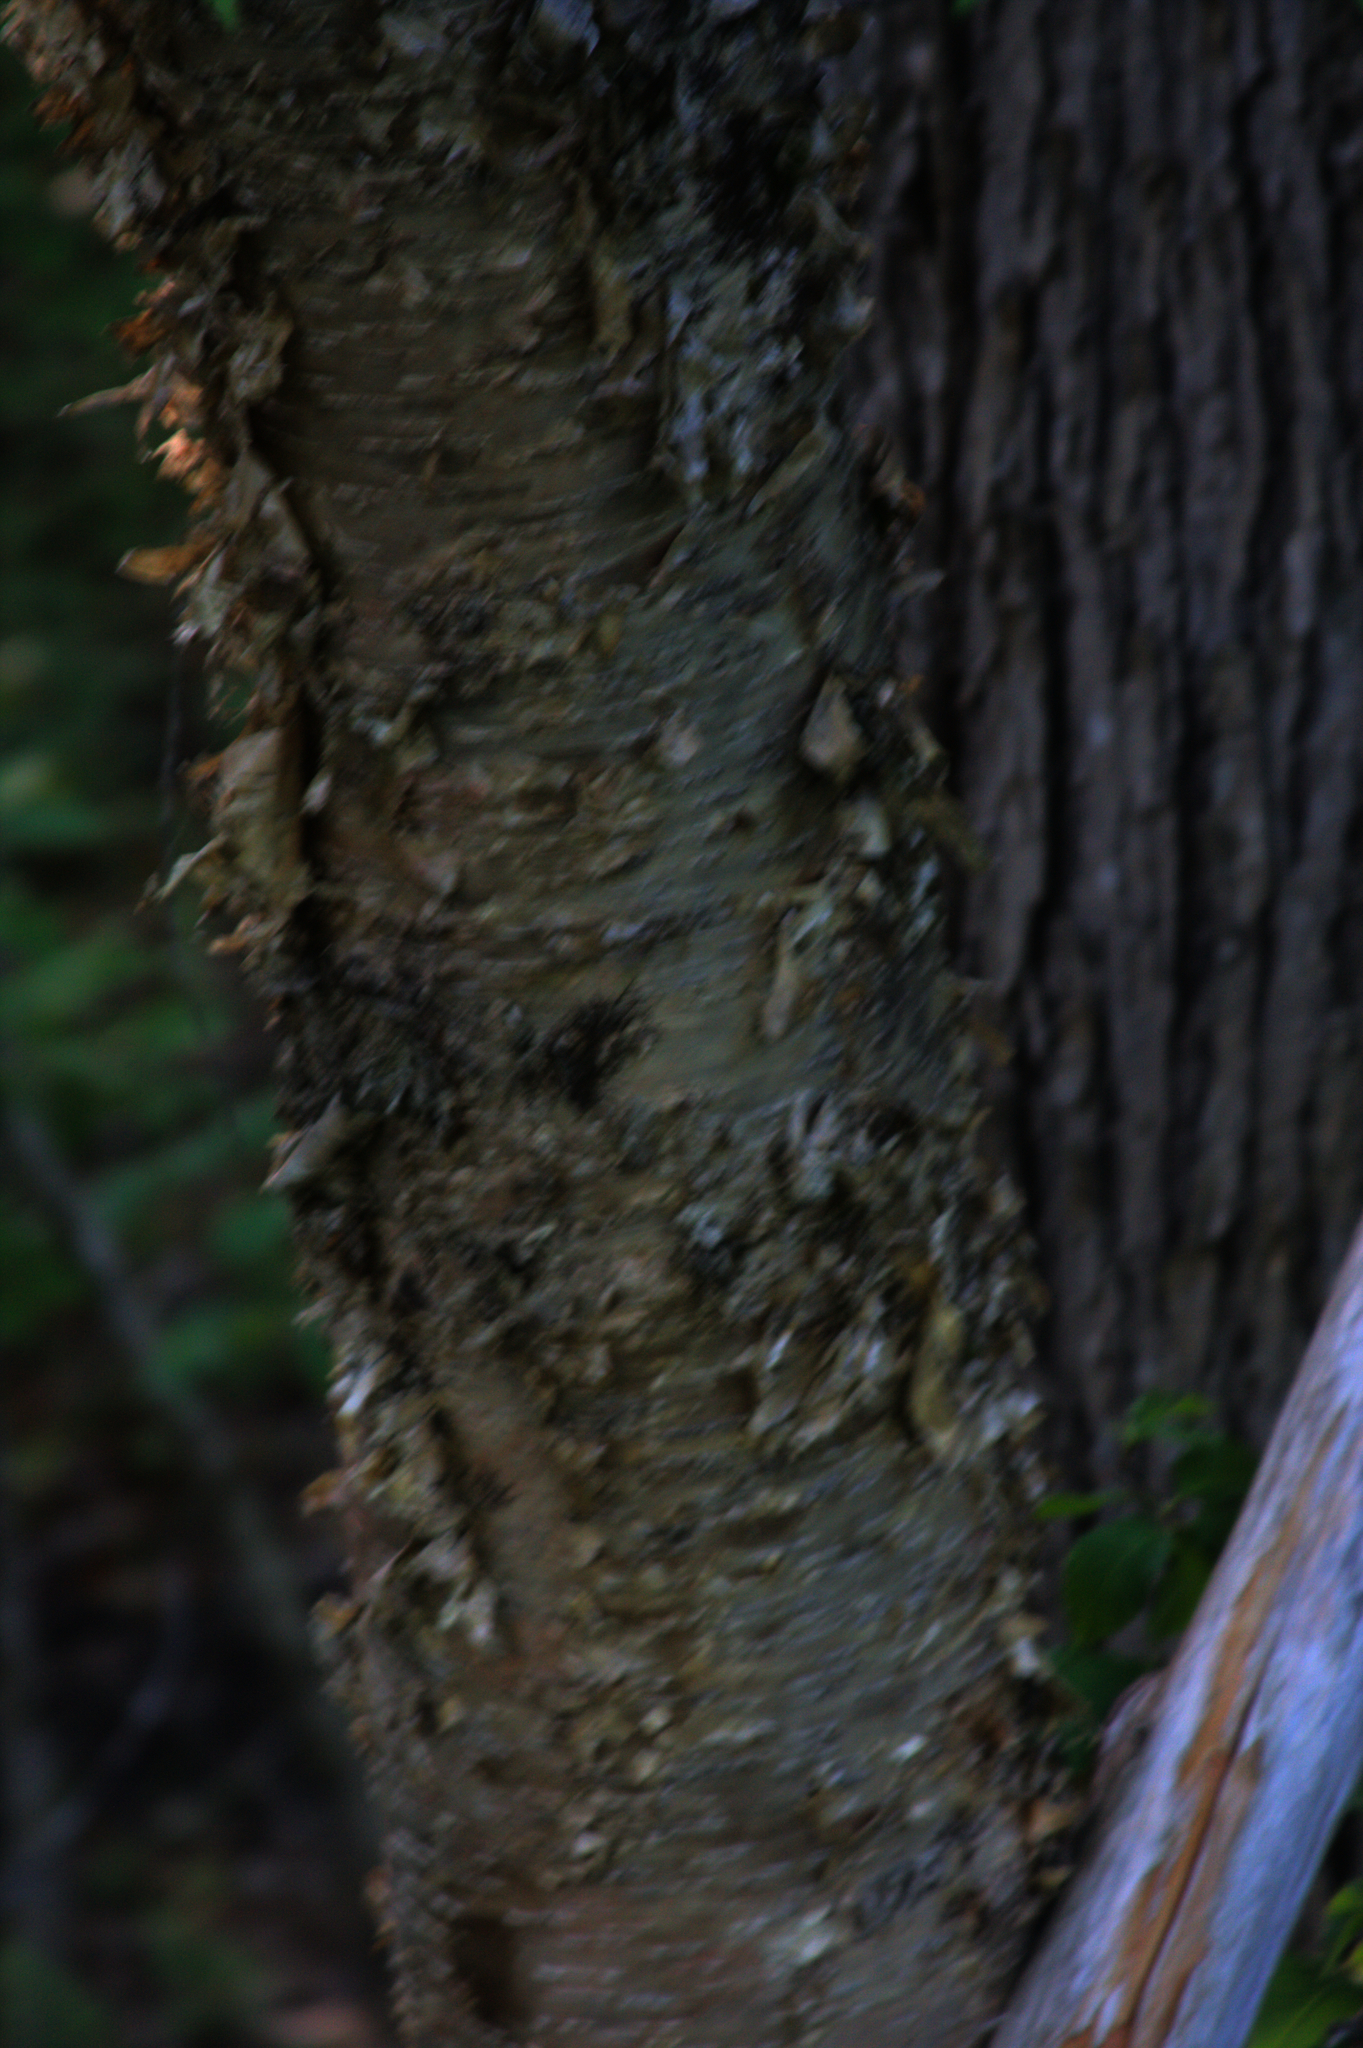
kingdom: Plantae
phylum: Tracheophyta
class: Magnoliopsida
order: Fagales
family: Betulaceae
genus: Betula
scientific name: Betula alleghaniensis
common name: Yellow birch
